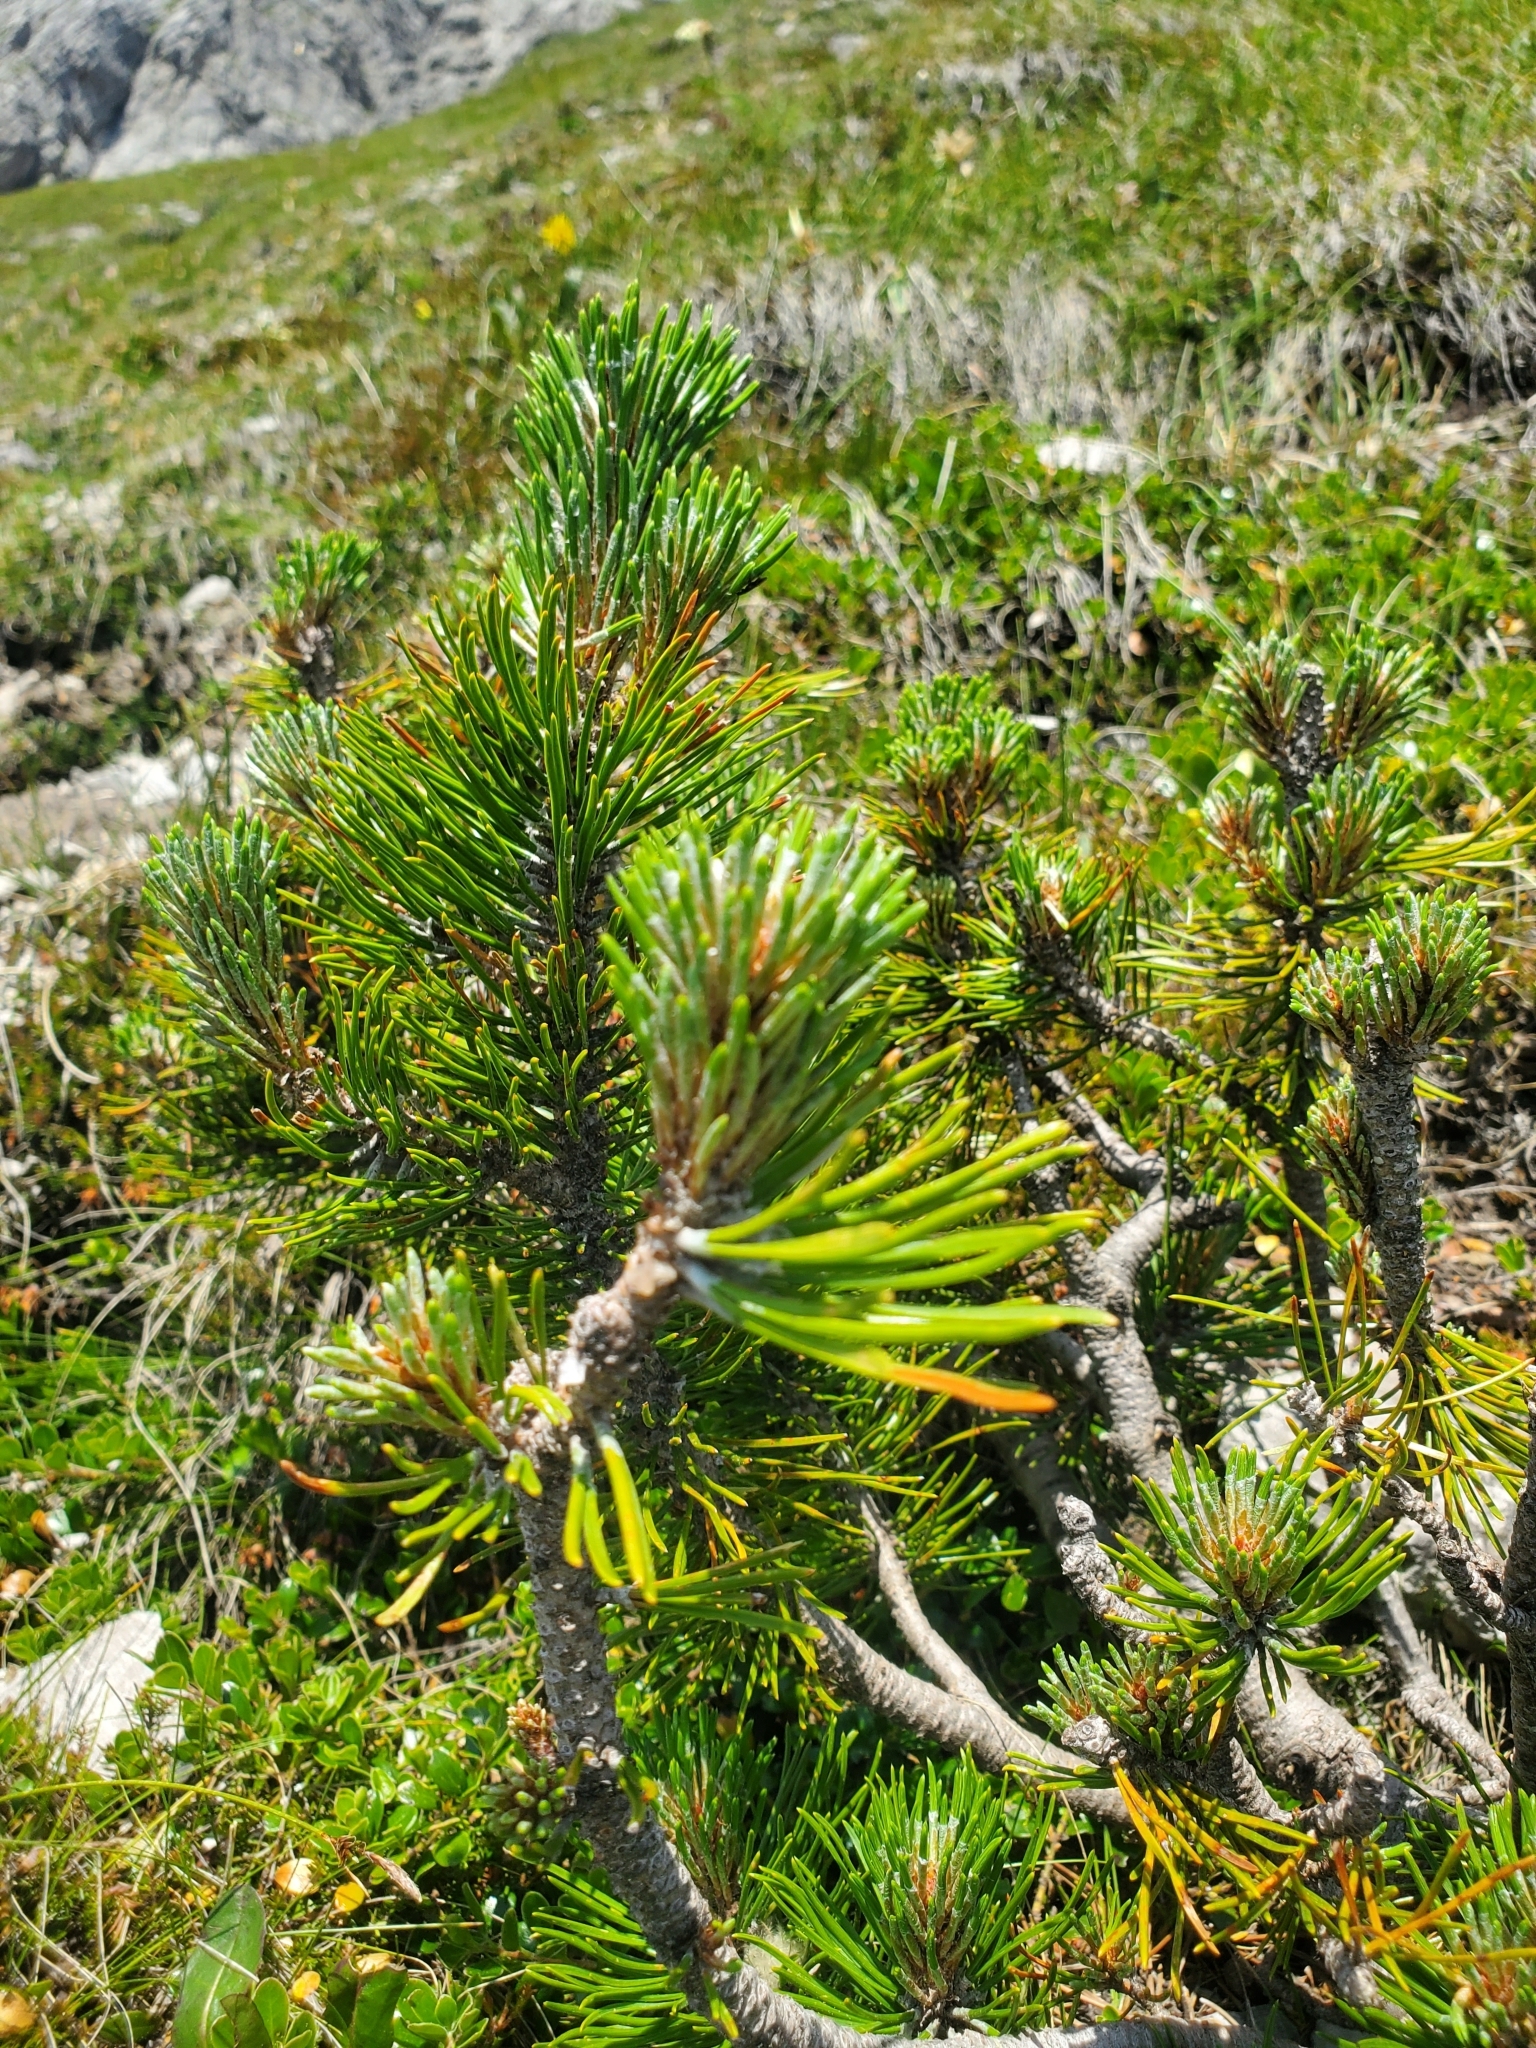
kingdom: Plantae
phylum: Tracheophyta
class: Pinopsida
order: Pinales
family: Pinaceae
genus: Pinus
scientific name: Pinus mugo
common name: Mugo pine
